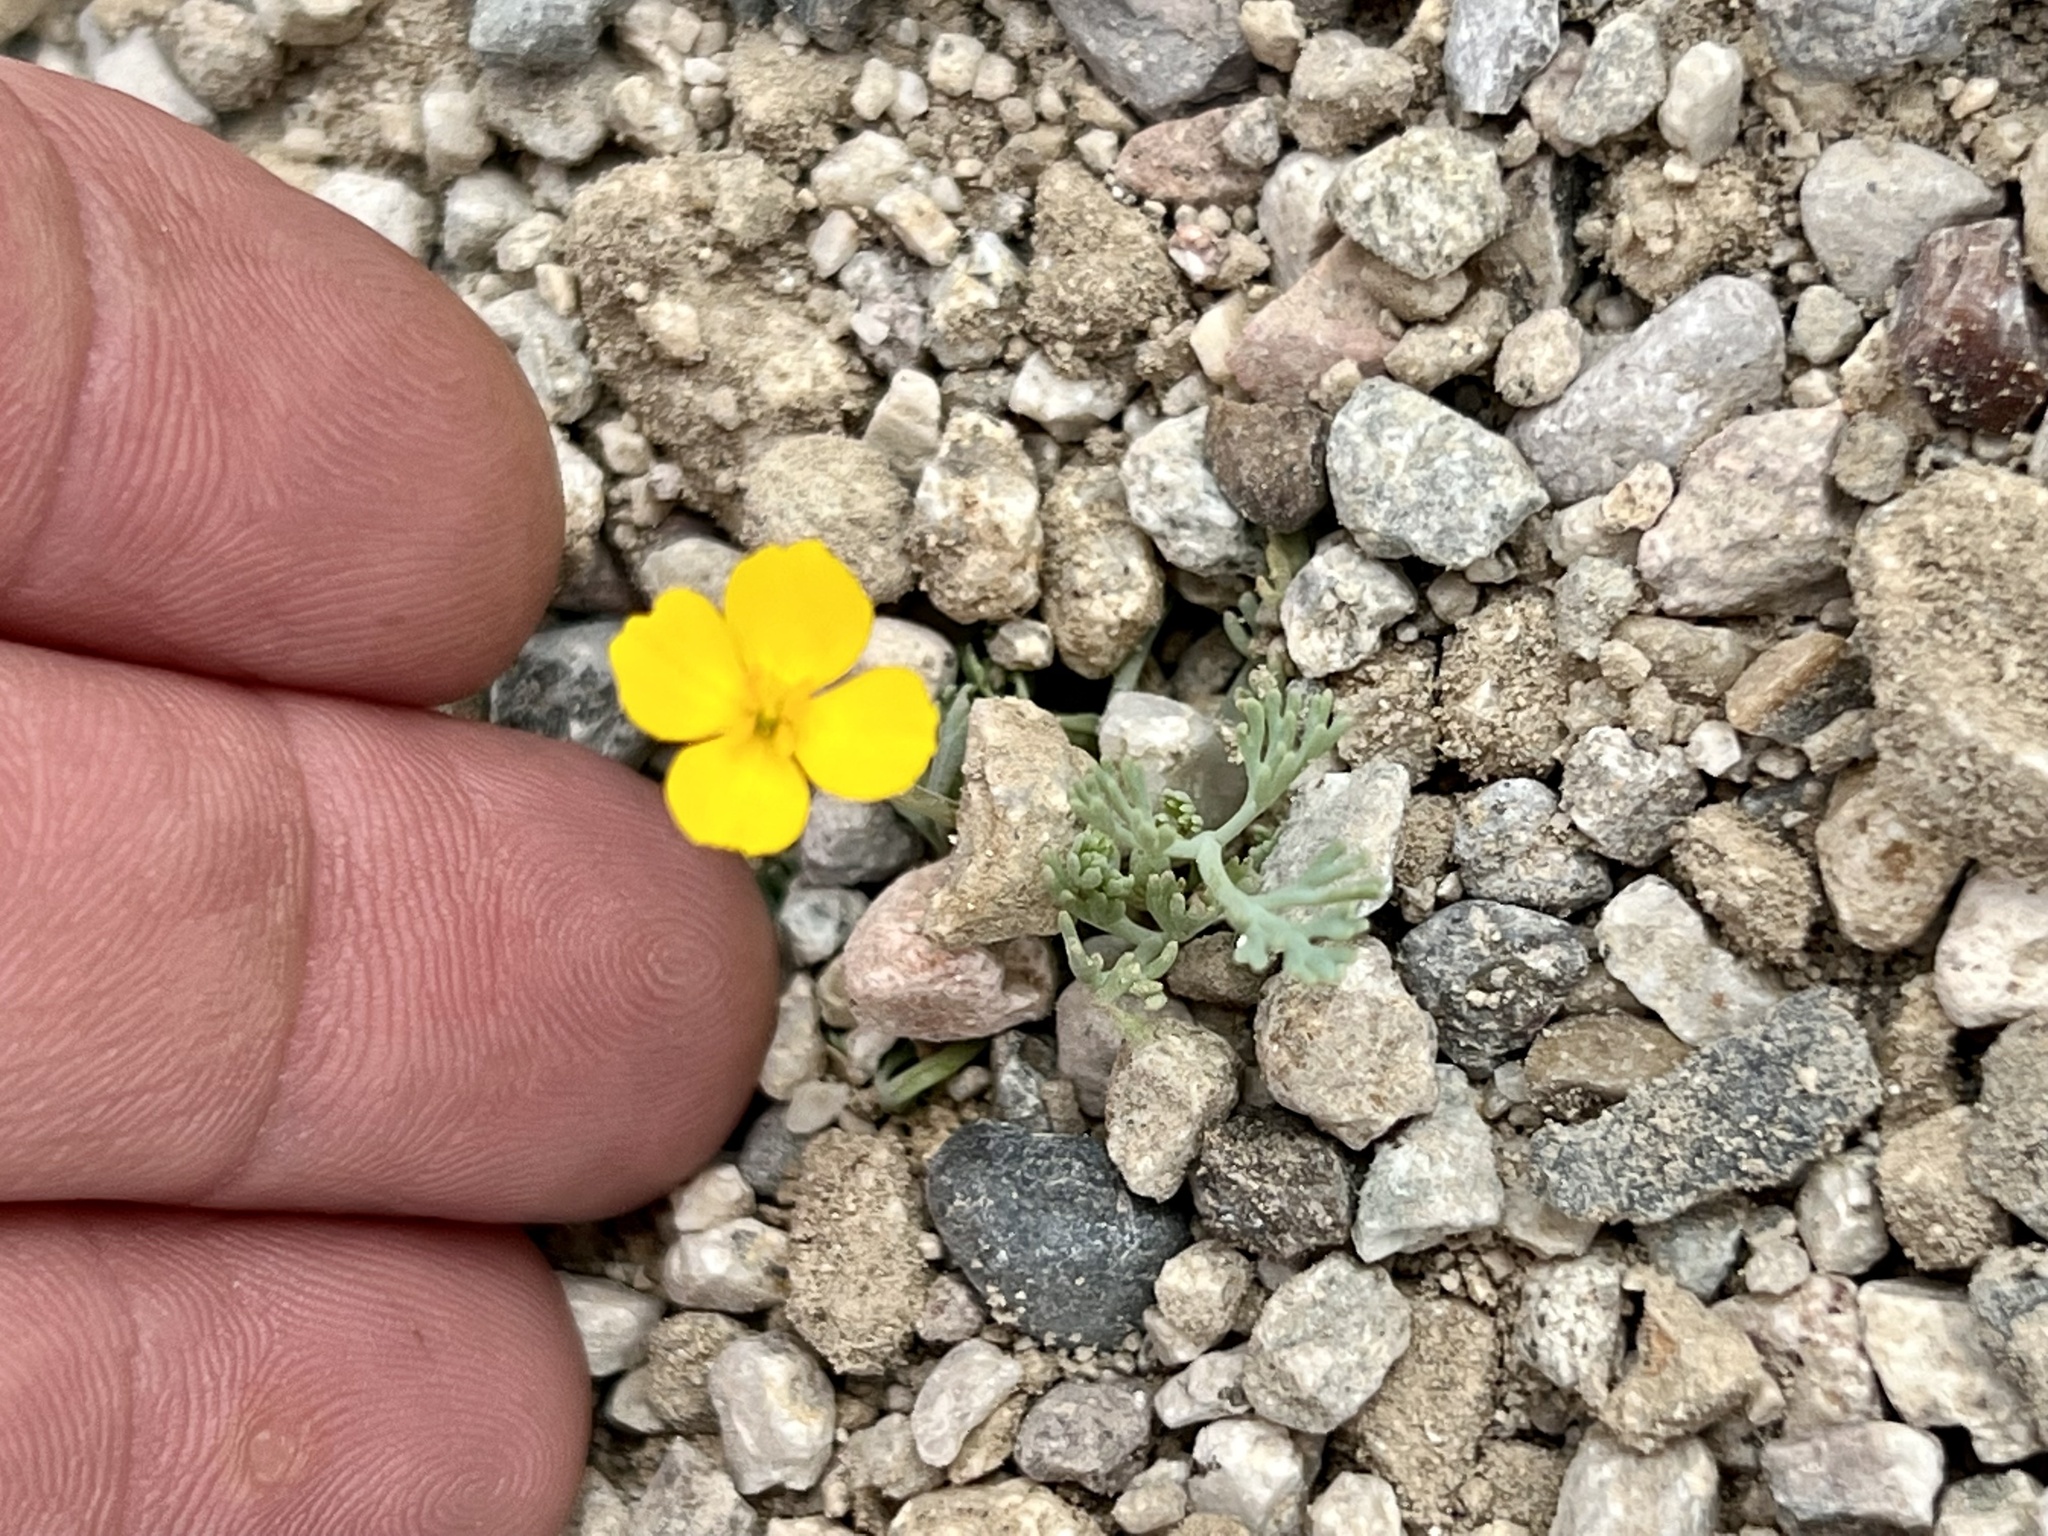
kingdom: Plantae
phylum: Tracheophyta
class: Magnoliopsida
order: Ranunculales
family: Papaveraceae
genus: Eschscholzia
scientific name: Eschscholzia minutiflora
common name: Small-flower california-poppy
